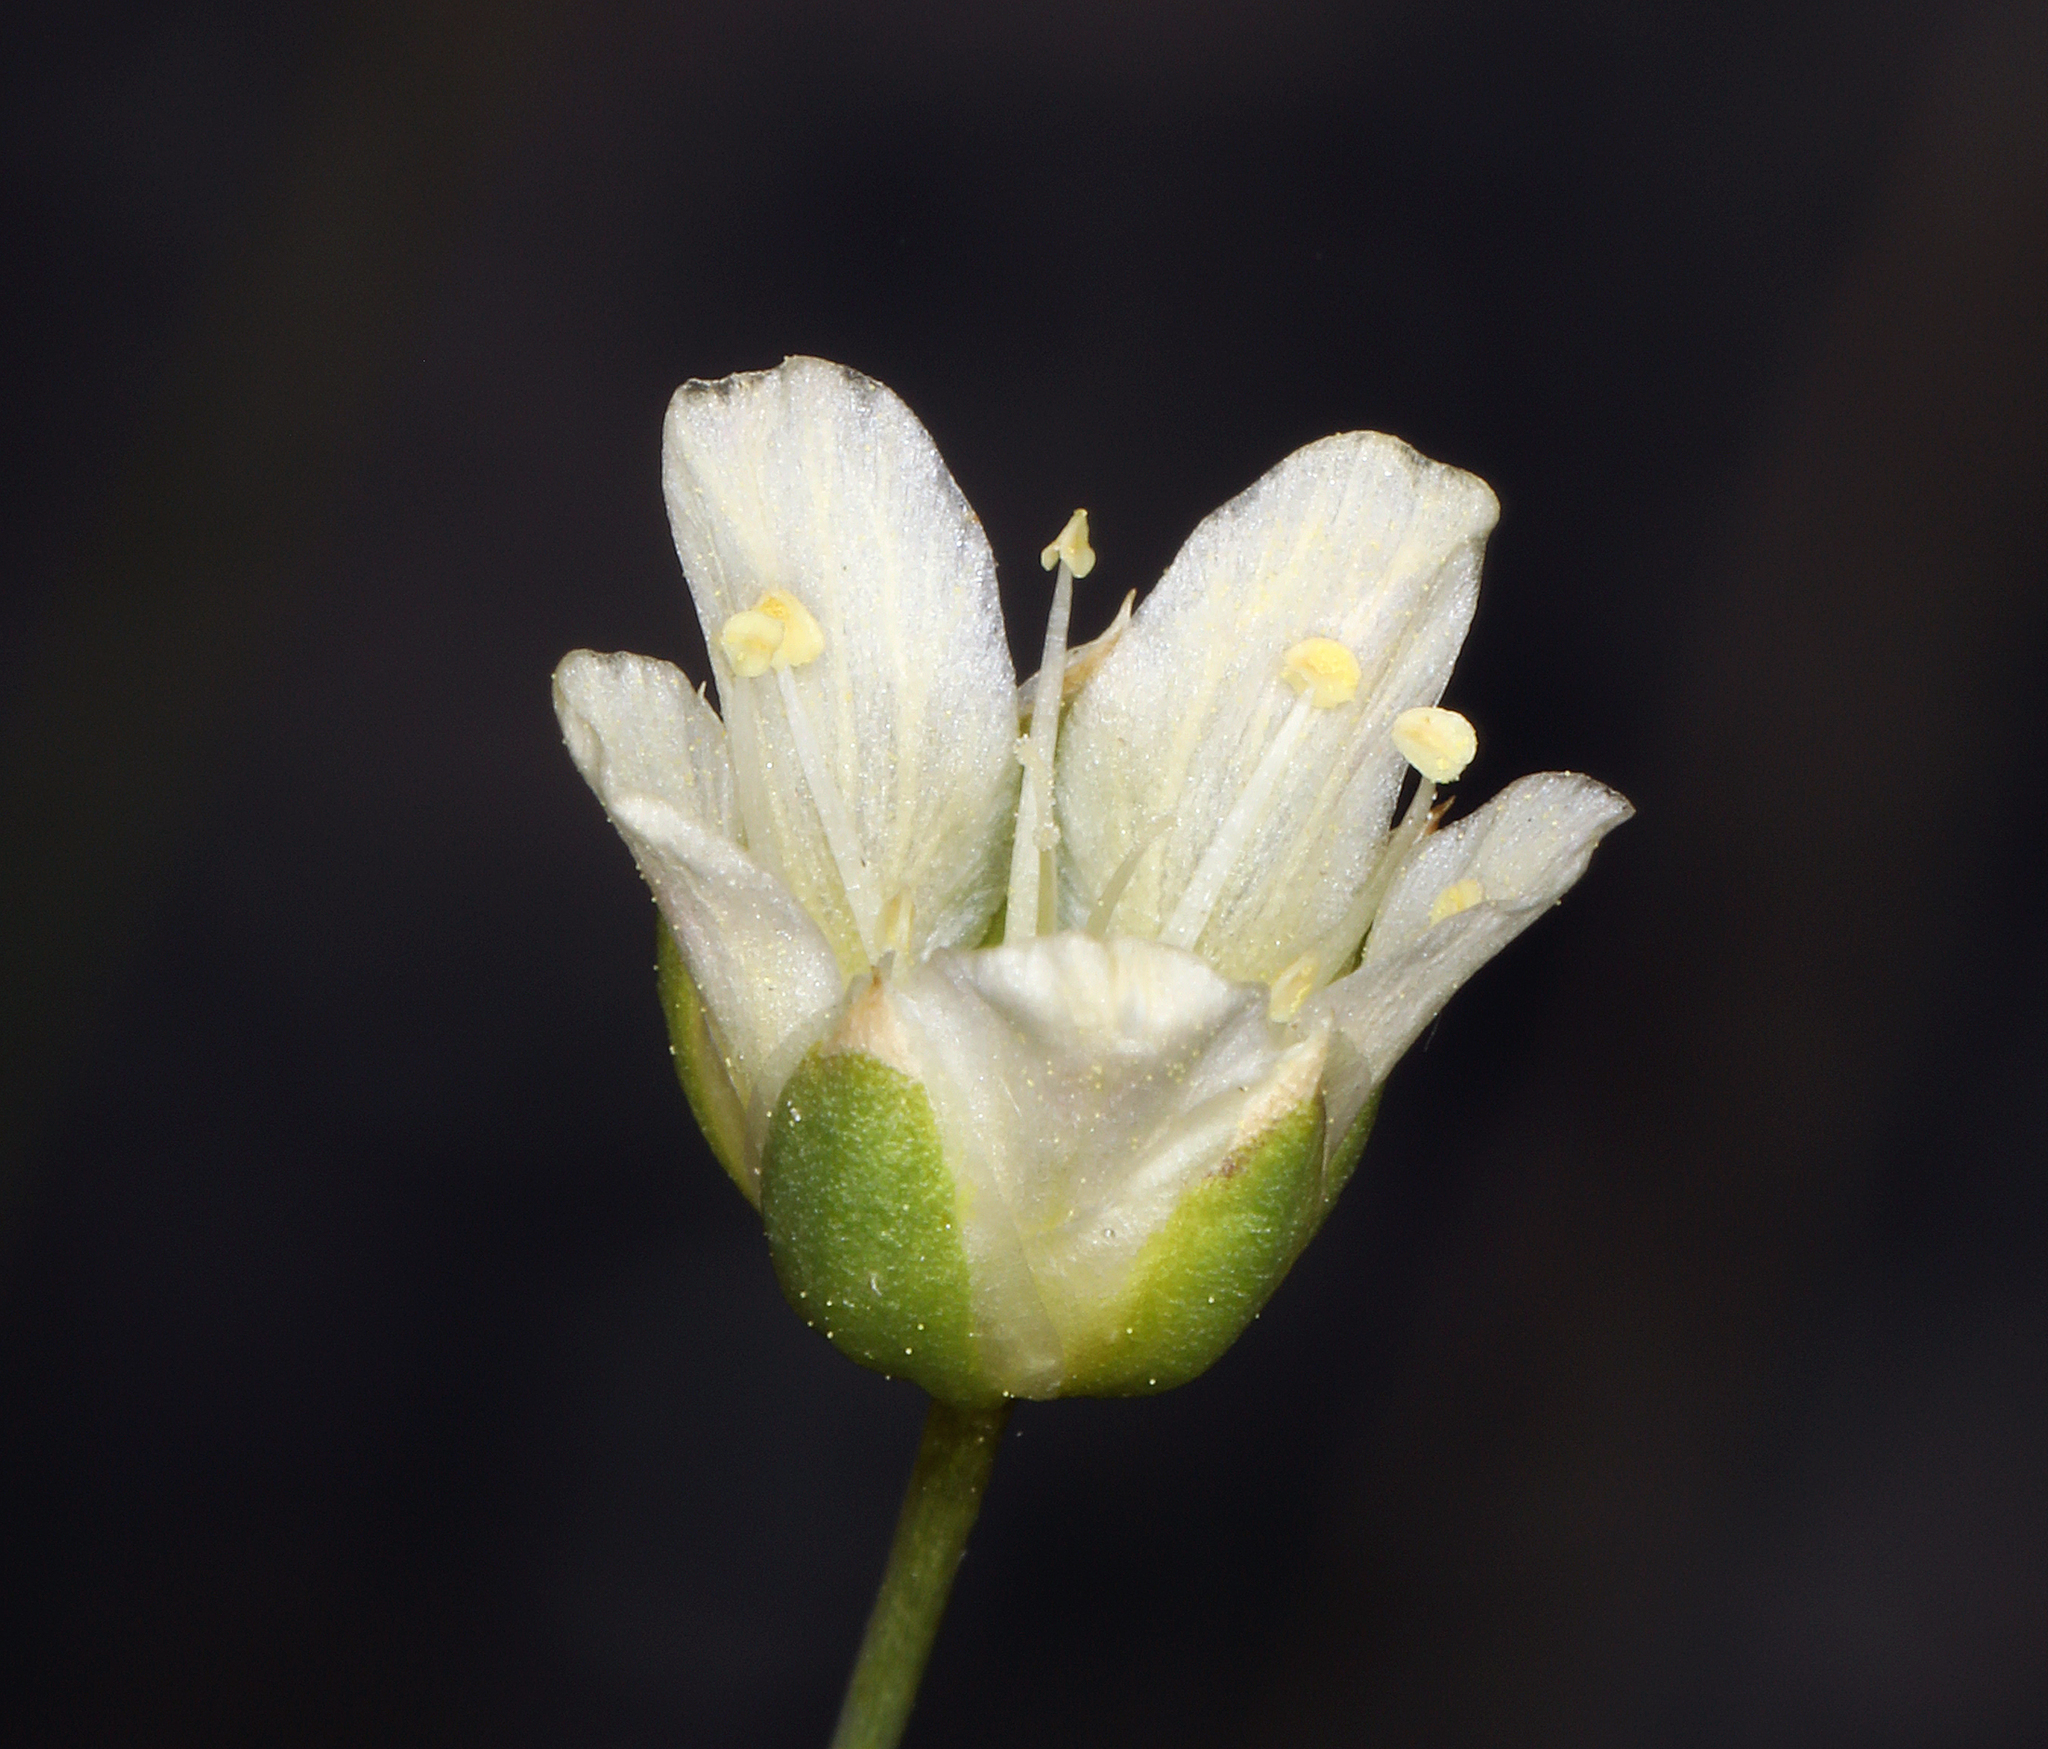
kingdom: Plantae
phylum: Tracheophyta
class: Magnoliopsida
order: Caryophyllales
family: Caryophyllaceae
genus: Eremogone
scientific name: Eremogone macradenia
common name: Mohave sandwort
